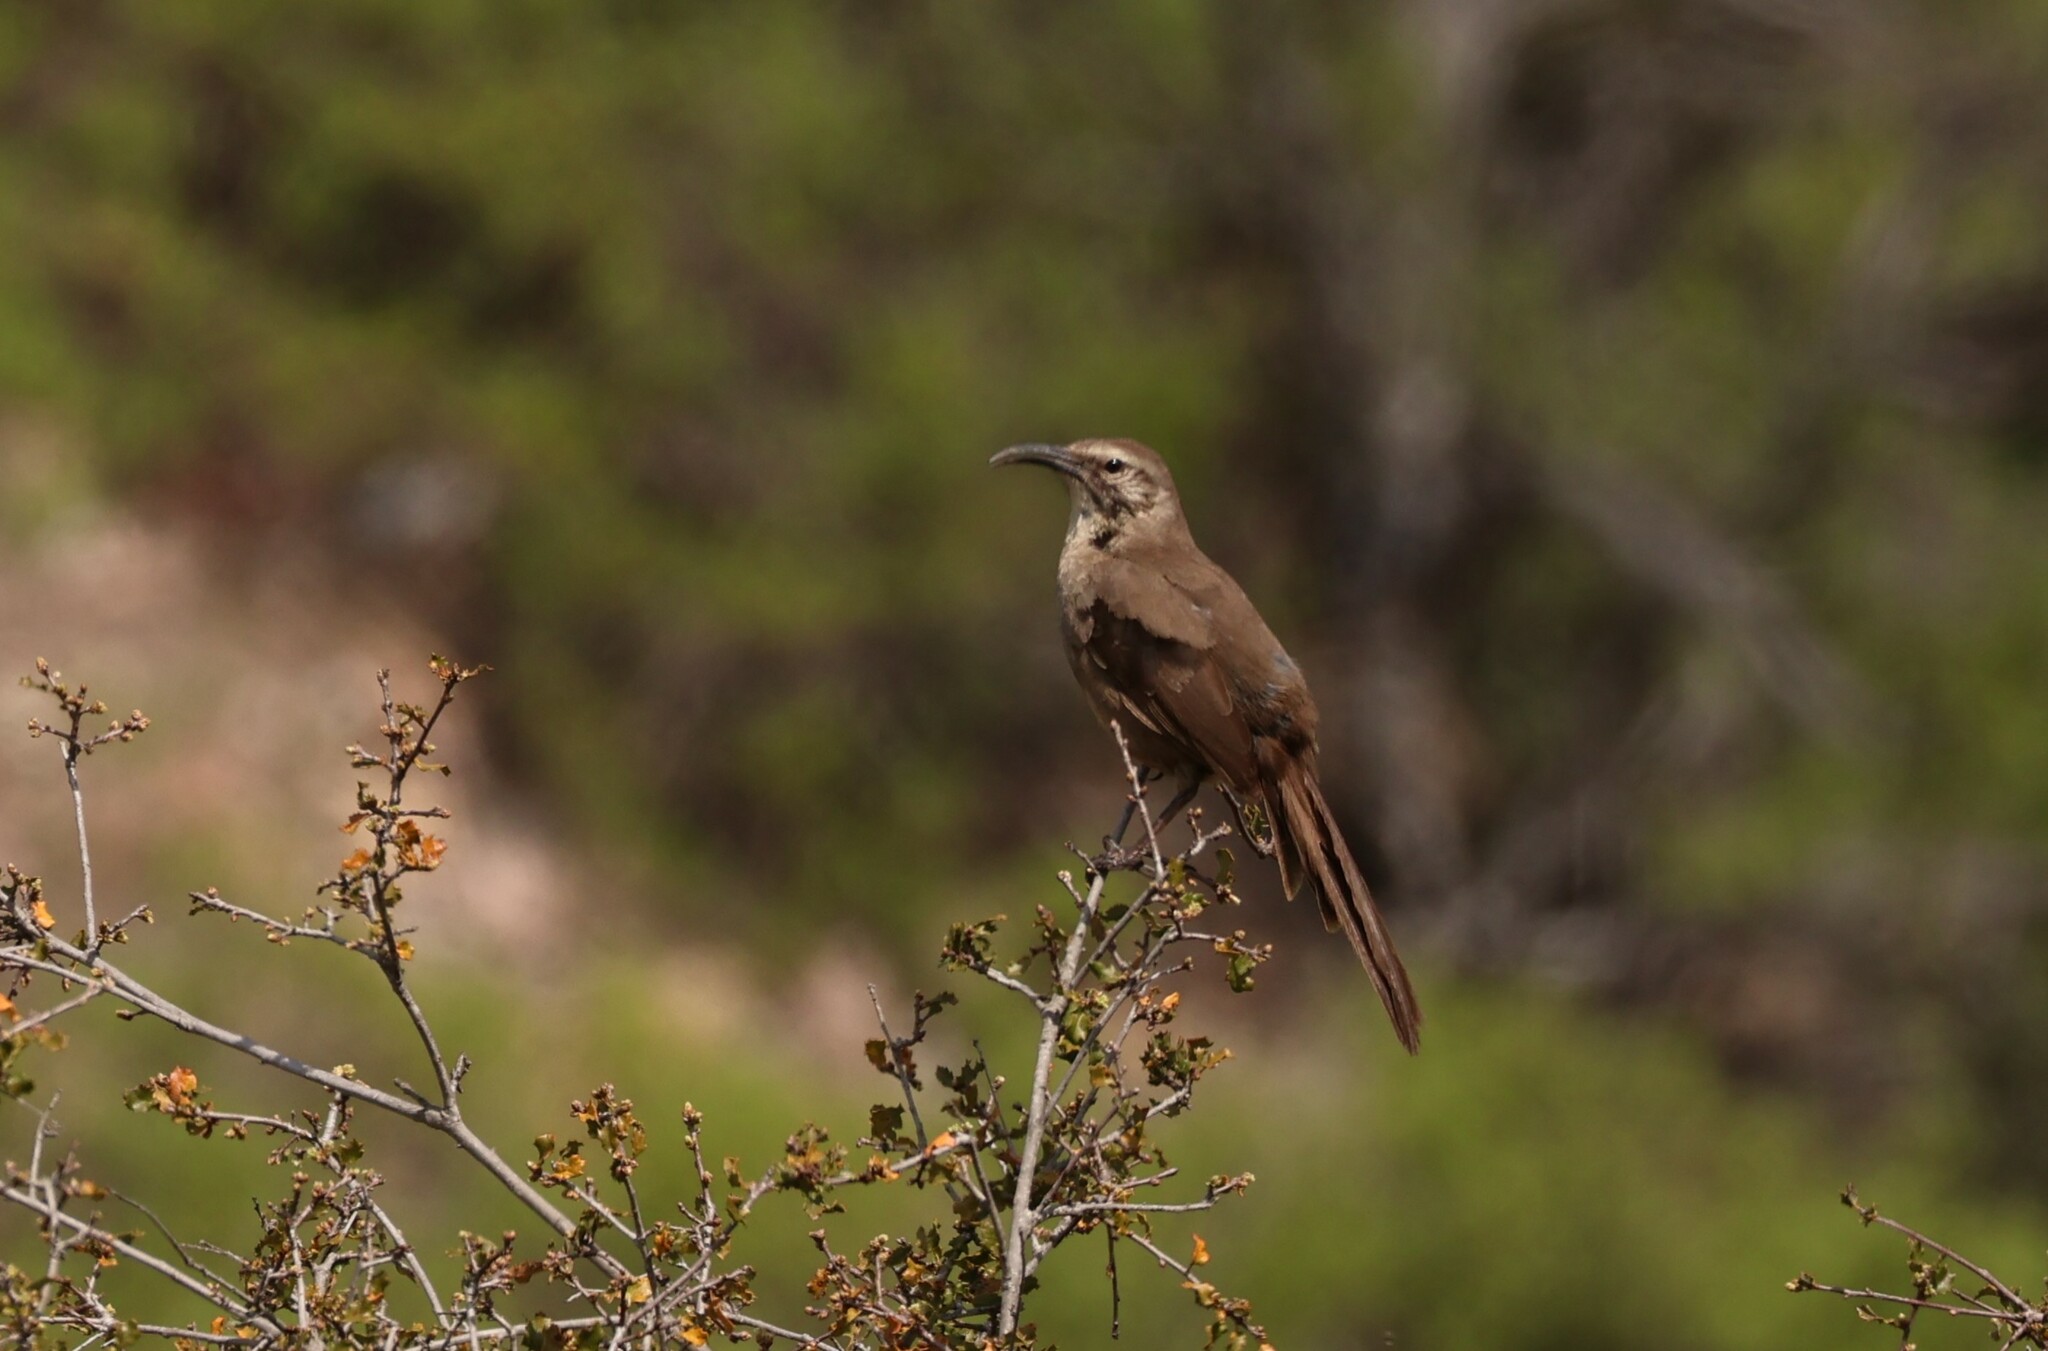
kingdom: Animalia
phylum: Chordata
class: Aves
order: Passeriformes
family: Mimidae
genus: Toxostoma
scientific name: Toxostoma redivivum
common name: California thrasher
